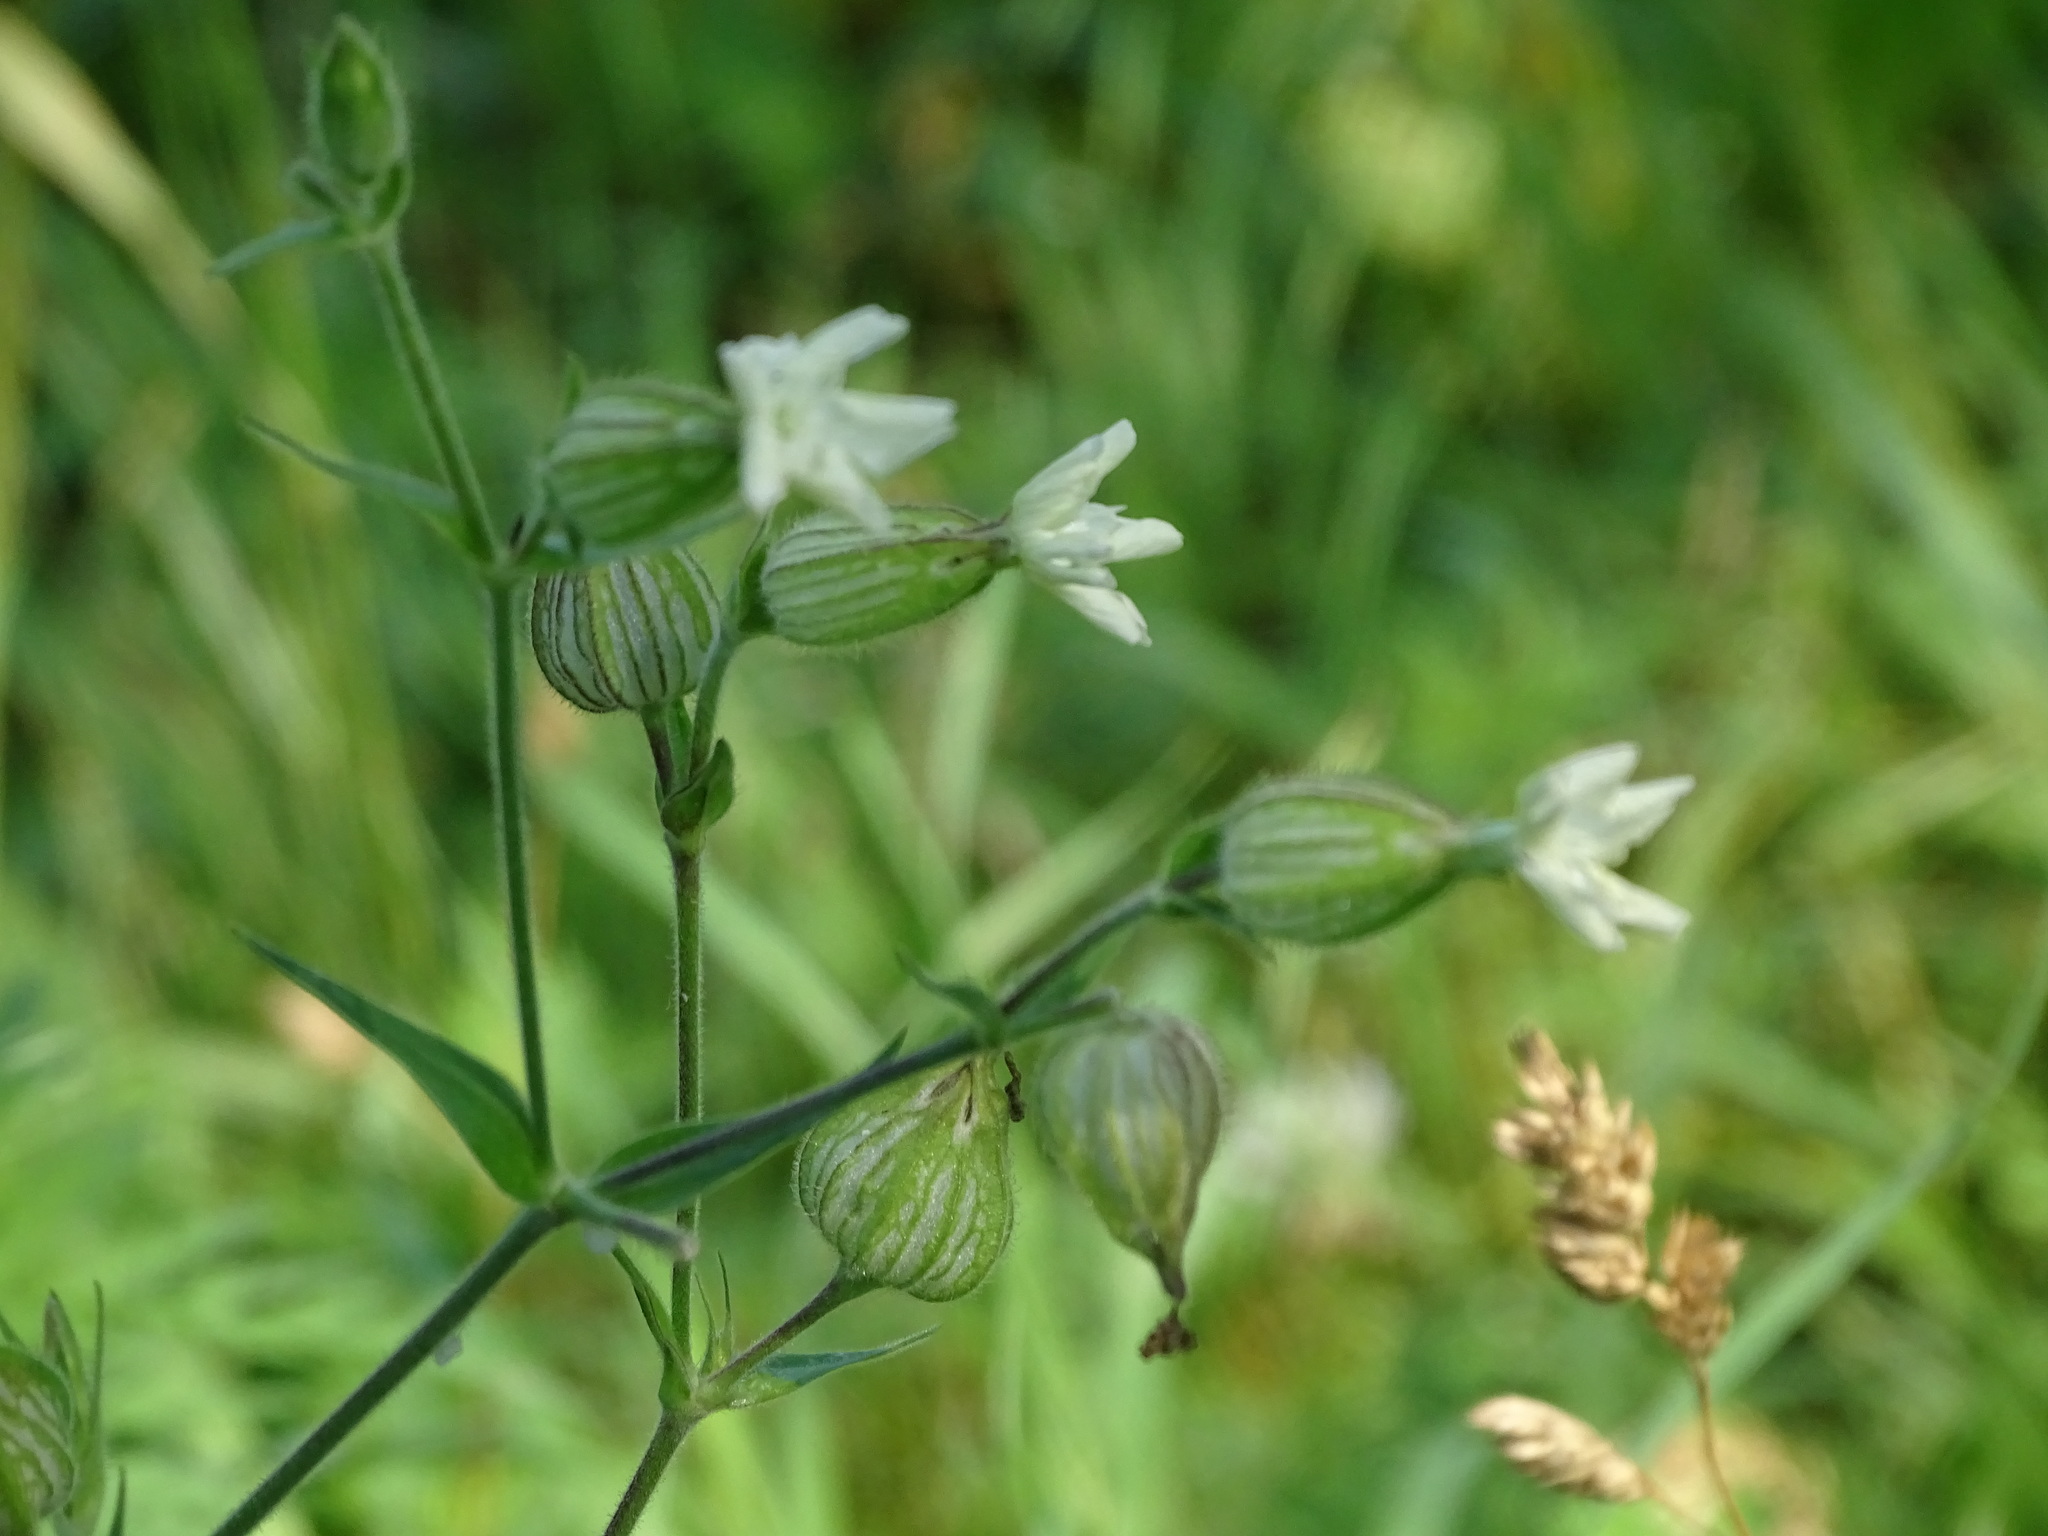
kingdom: Plantae
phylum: Tracheophyta
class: Magnoliopsida
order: Caryophyllales
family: Caryophyllaceae
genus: Silene
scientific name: Silene latifolia
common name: White campion
